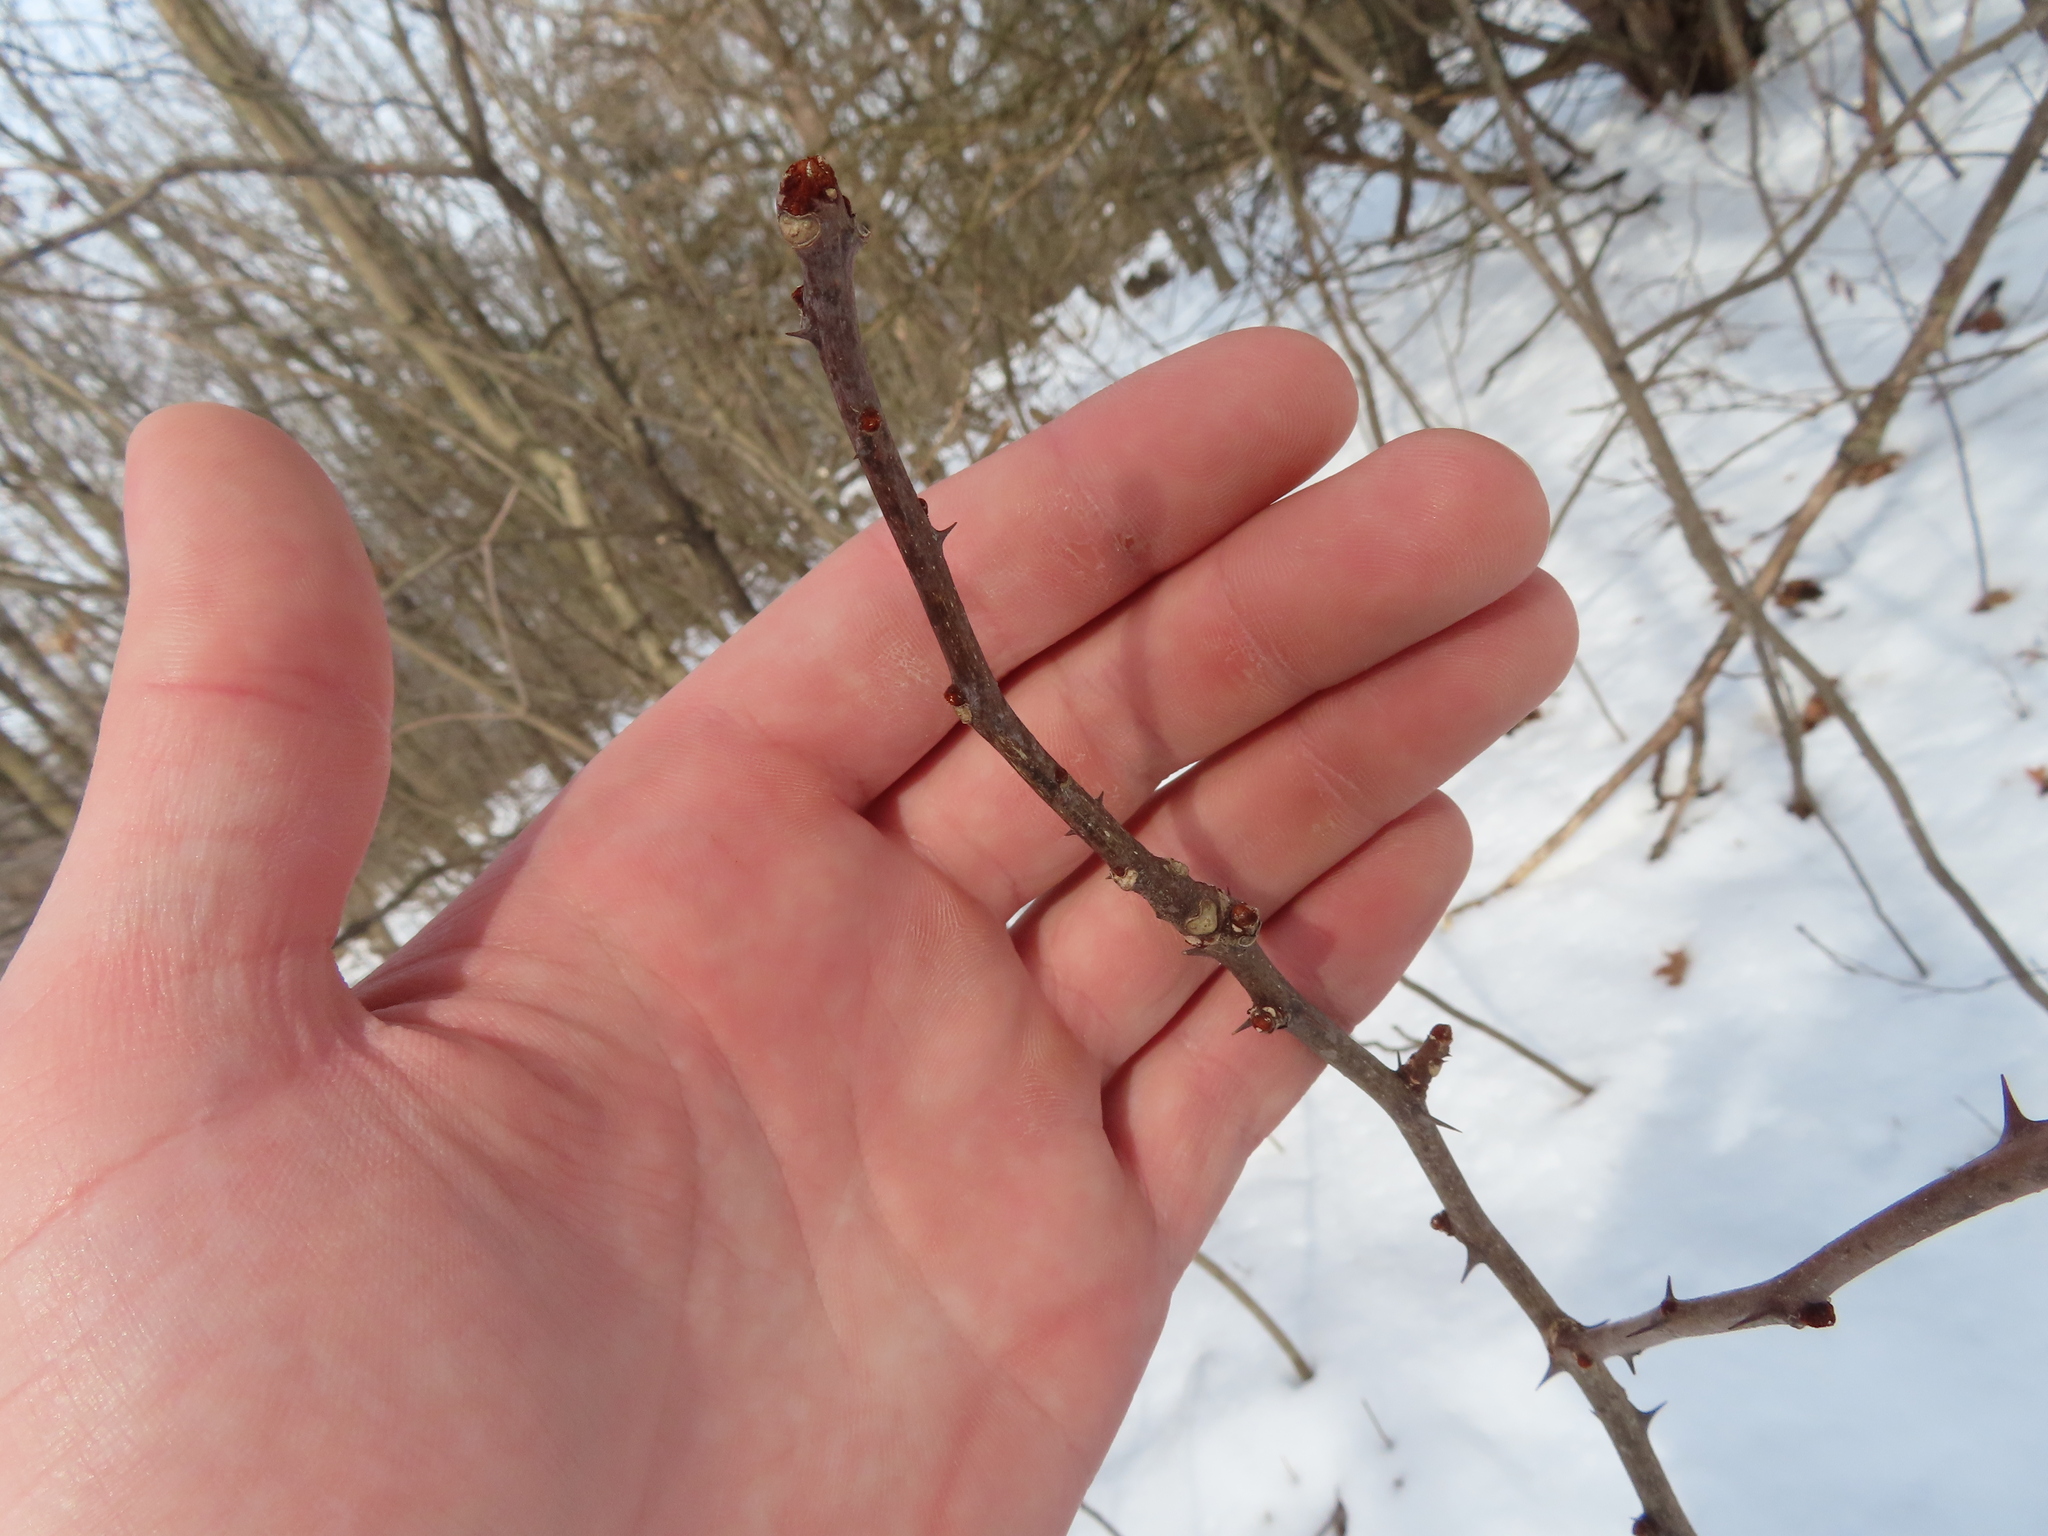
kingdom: Plantae
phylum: Tracheophyta
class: Magnoliopsida
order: Sapindales
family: Rutaceae
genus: Zanthoxylum
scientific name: Zanthoxylum americanum
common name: Northern prickly-ash
